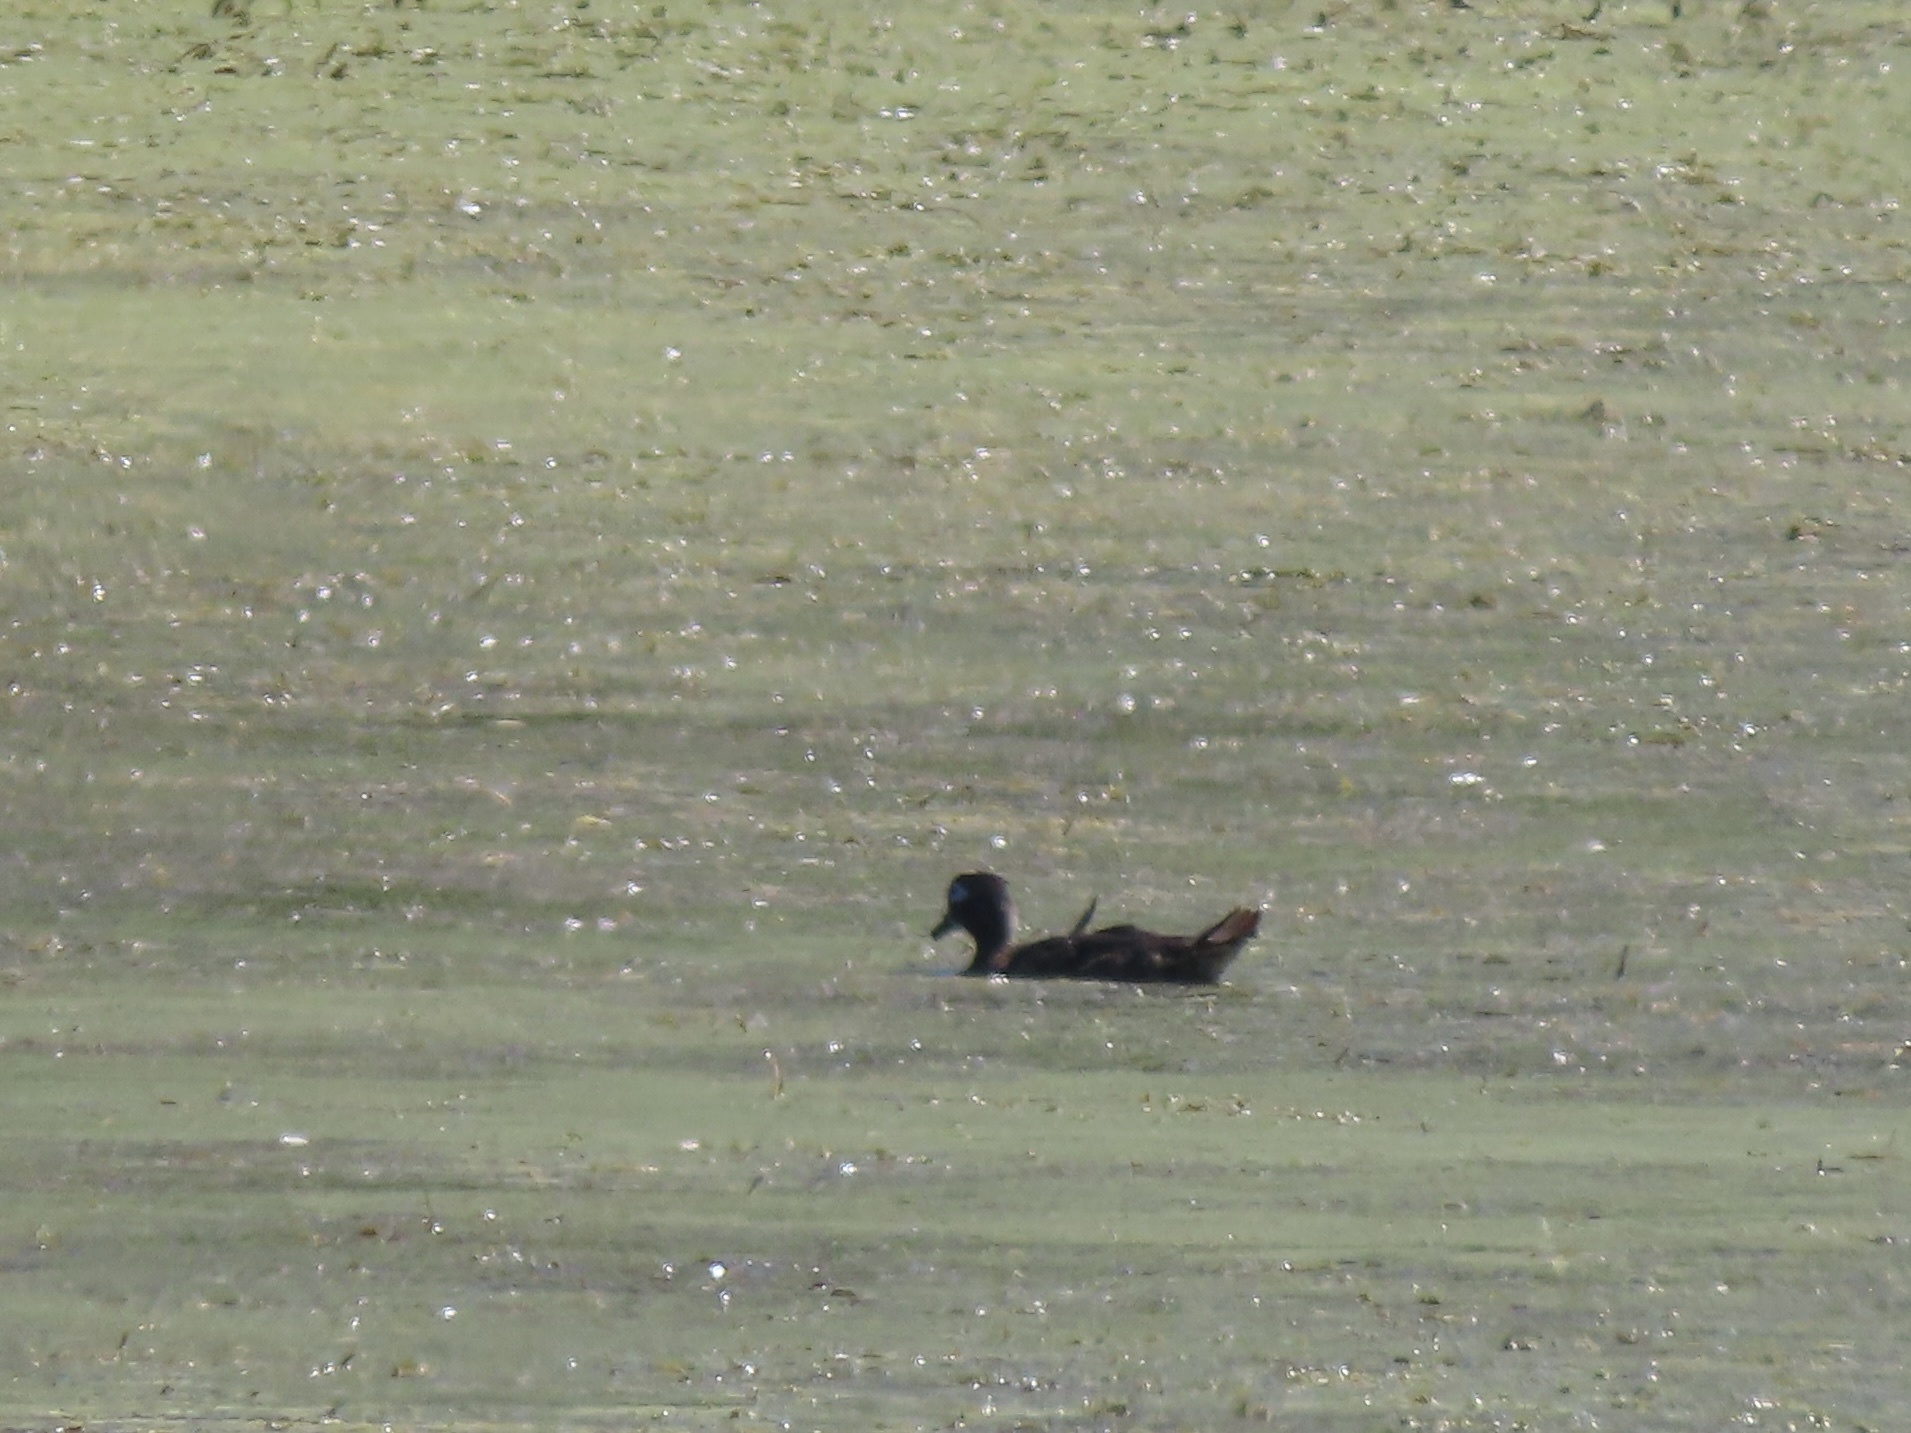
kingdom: Animalia
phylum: Chordata
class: Aves
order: Anseriformes
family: Anatidae
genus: Aix
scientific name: Aix sponsa
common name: Wood duck
